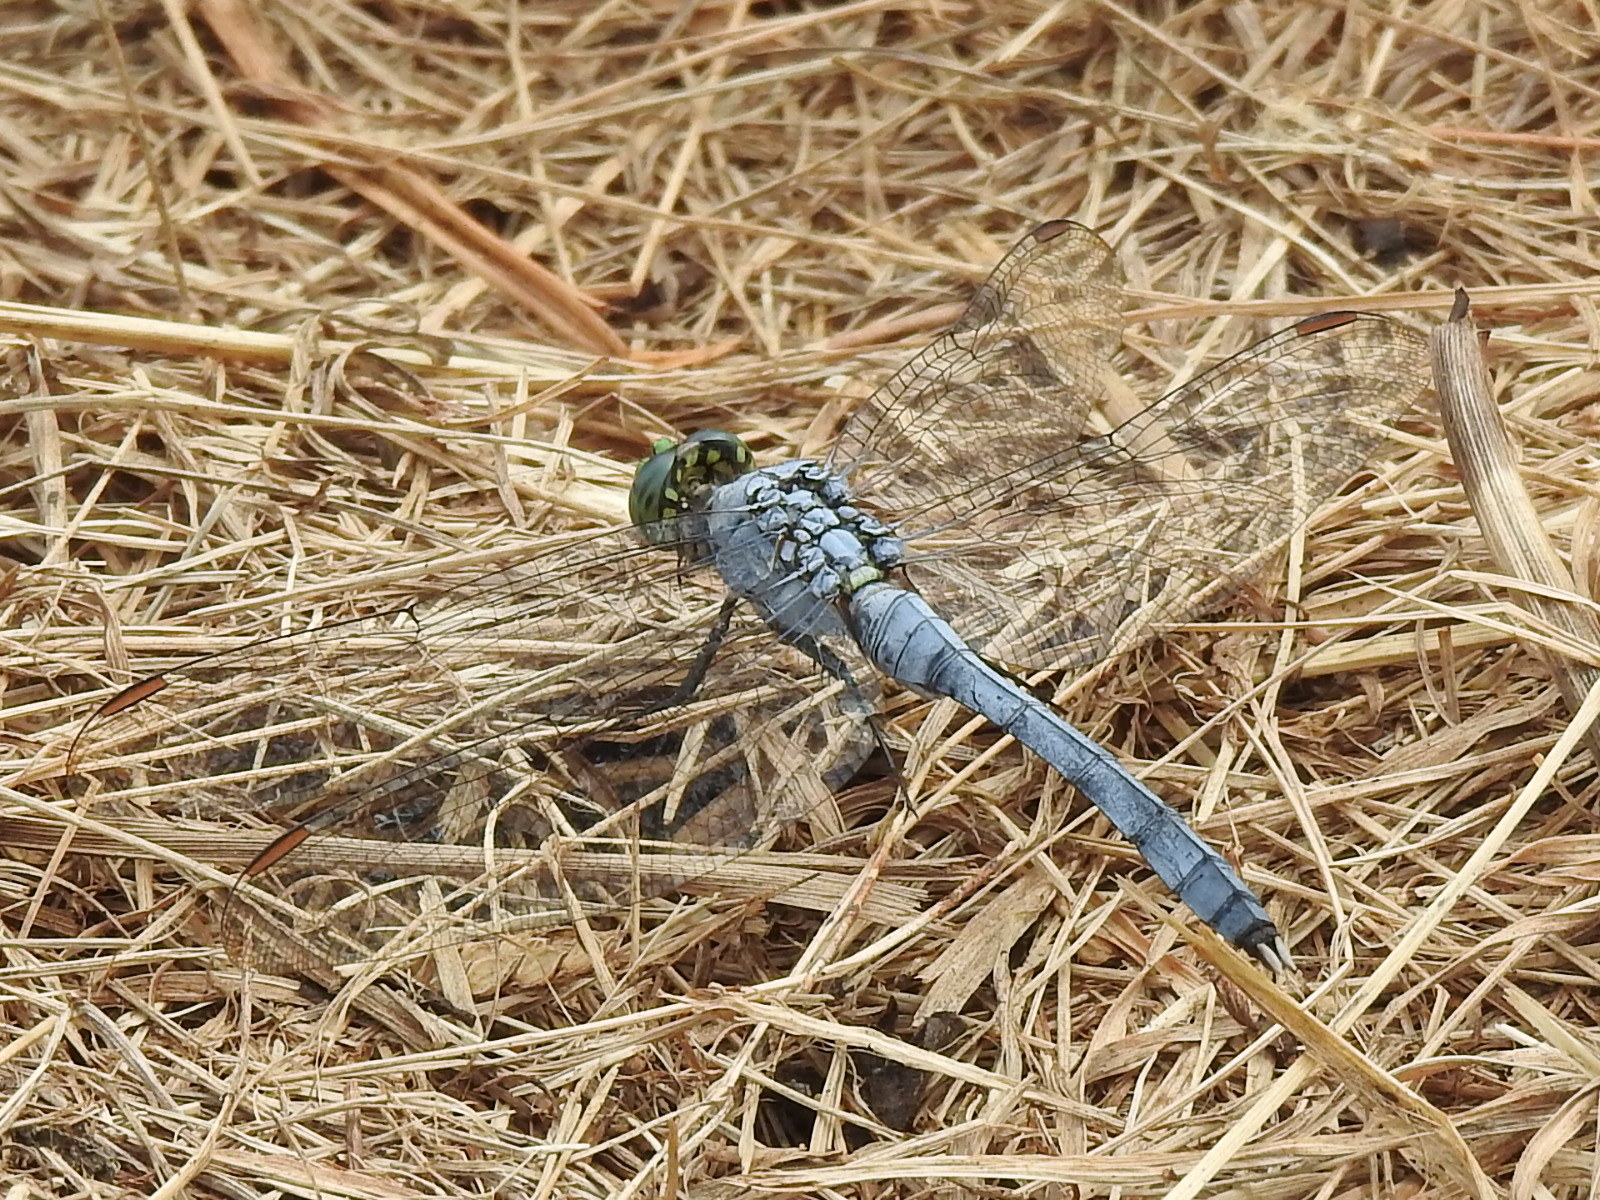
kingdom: Animalia
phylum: Arthropoda
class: Insecta
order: Odonata
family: Libellulidae
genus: Erythemis
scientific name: Erythemis simplicicollis
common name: Eastern pondhawk
